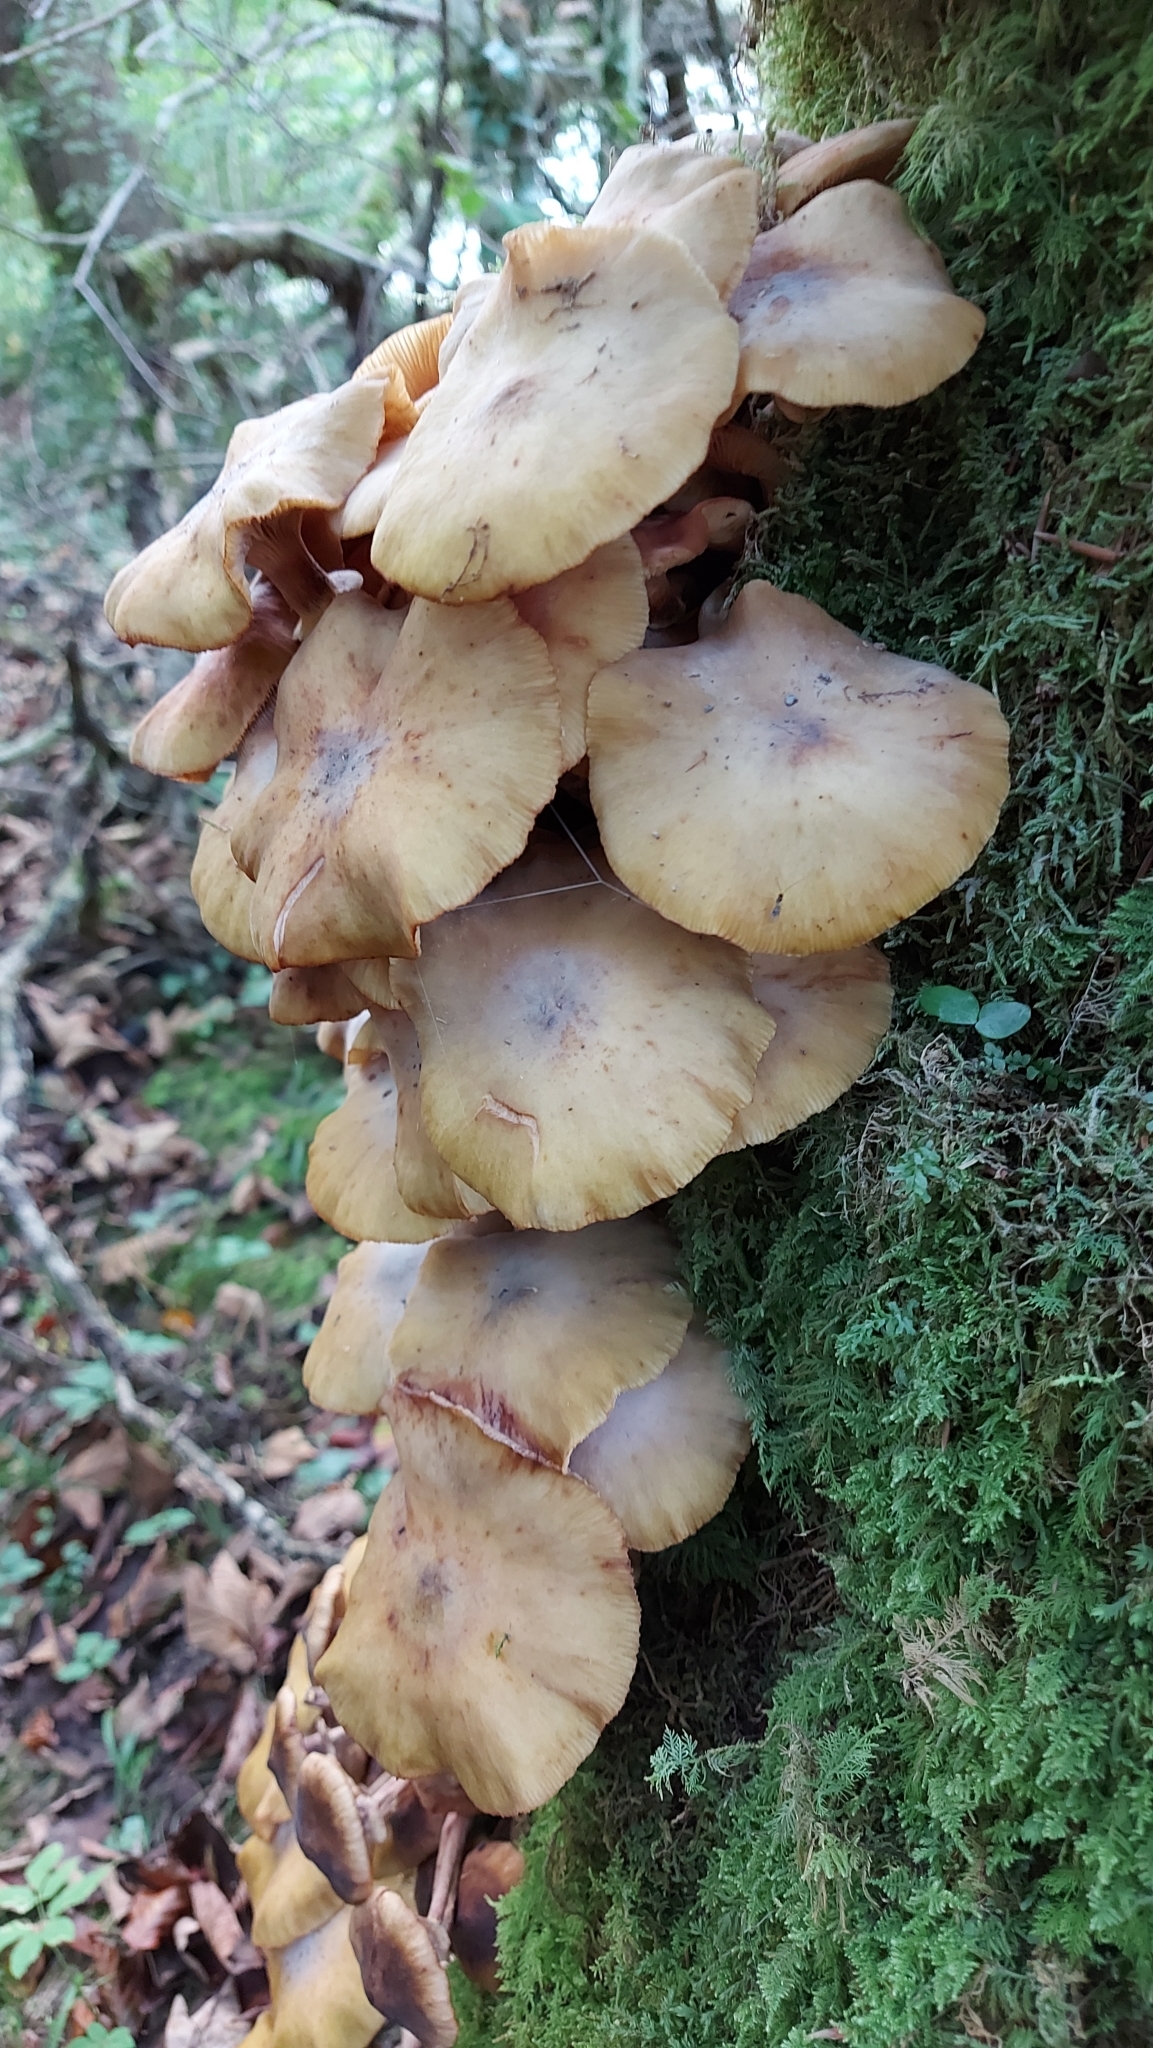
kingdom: Fungi
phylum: Basidiomycota
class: Agaricomycetes
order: Agaricales
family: Physalacriaceae
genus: Armillaria
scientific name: Armillaria mellea
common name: Honey fungus
